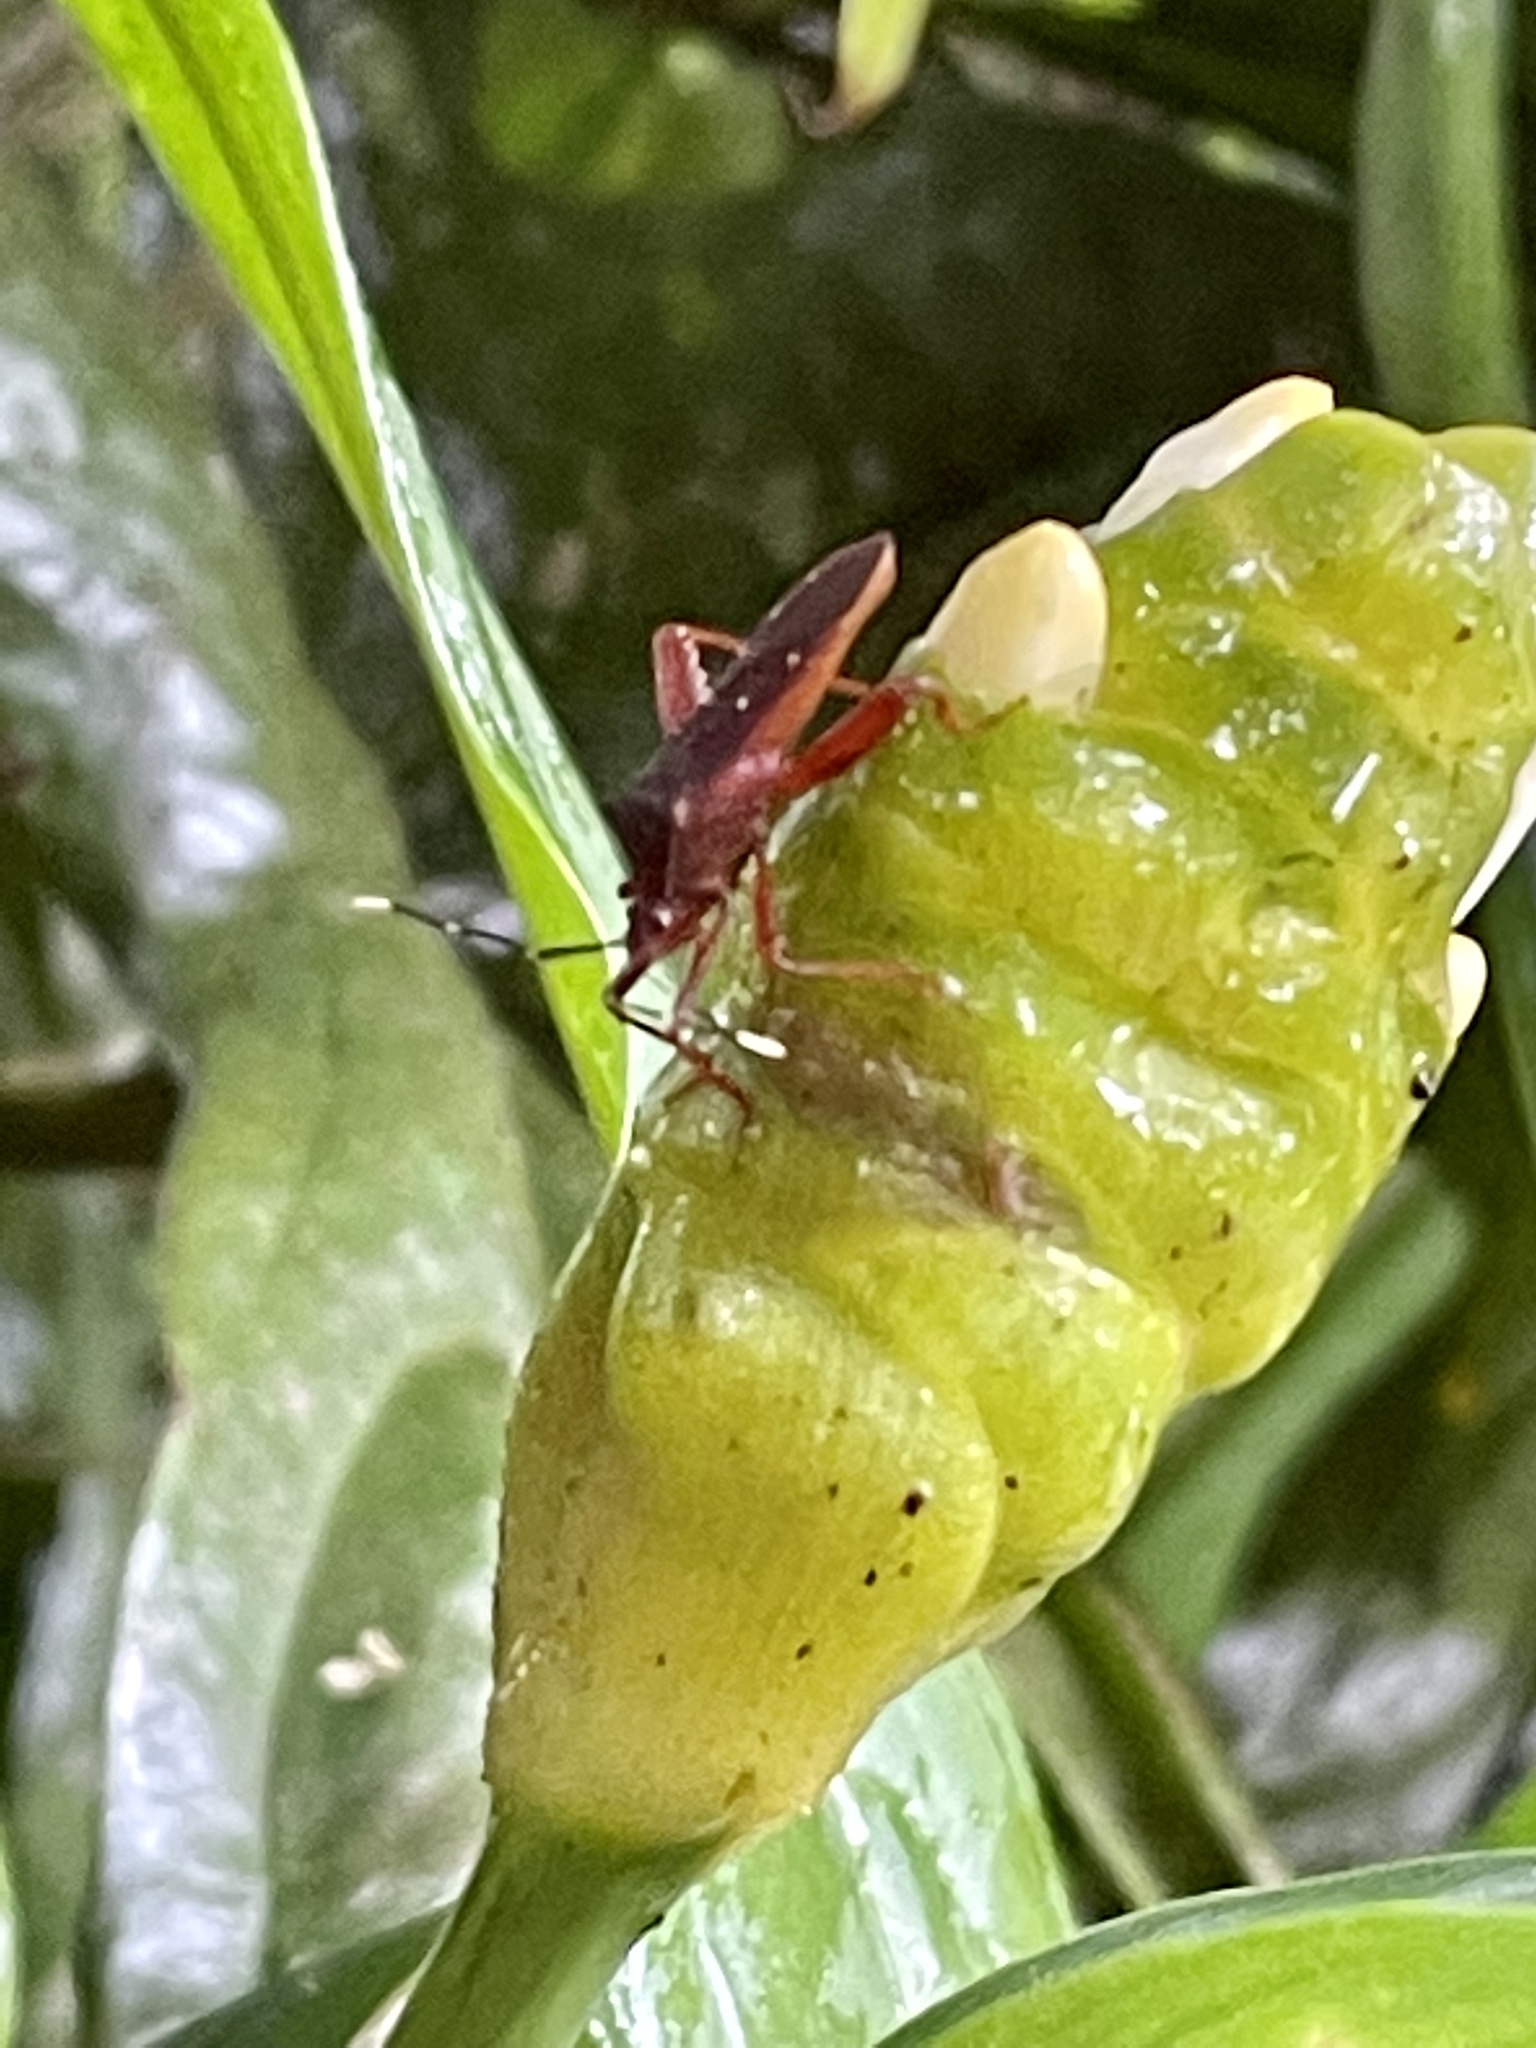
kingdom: Animalia
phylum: Arthropoda
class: Insecta
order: Hemiptera
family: Coreidae
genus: Leptoscelis
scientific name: Leptoscelis quadrisignatus
